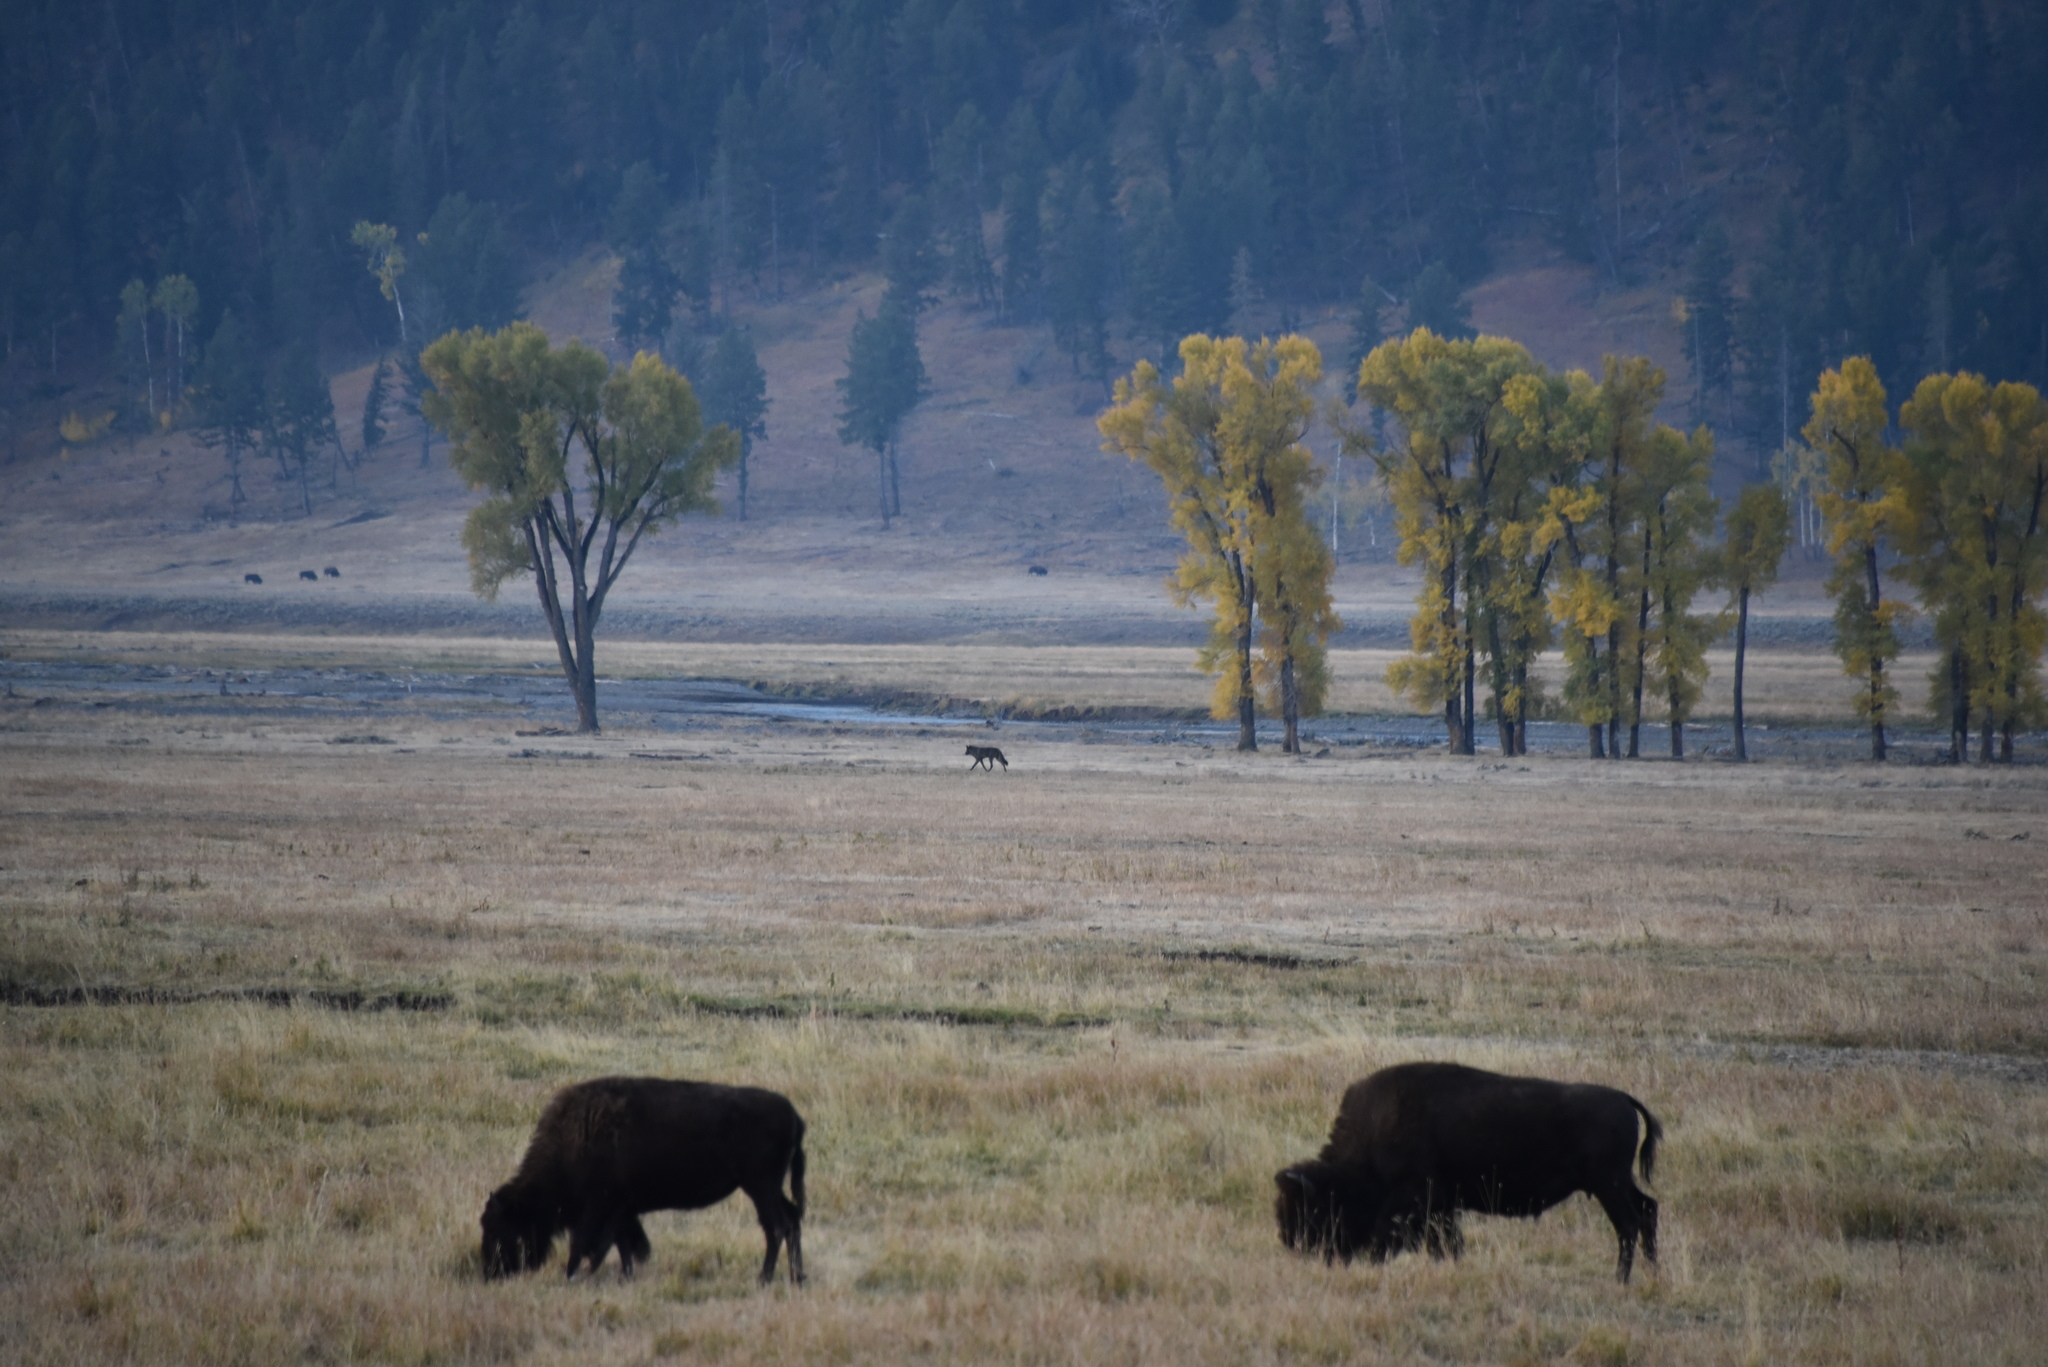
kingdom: Animalia
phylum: Chordata
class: Mammalia
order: Carnivora
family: Canidae
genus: Canis
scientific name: Canis lupus
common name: Gray wolf
